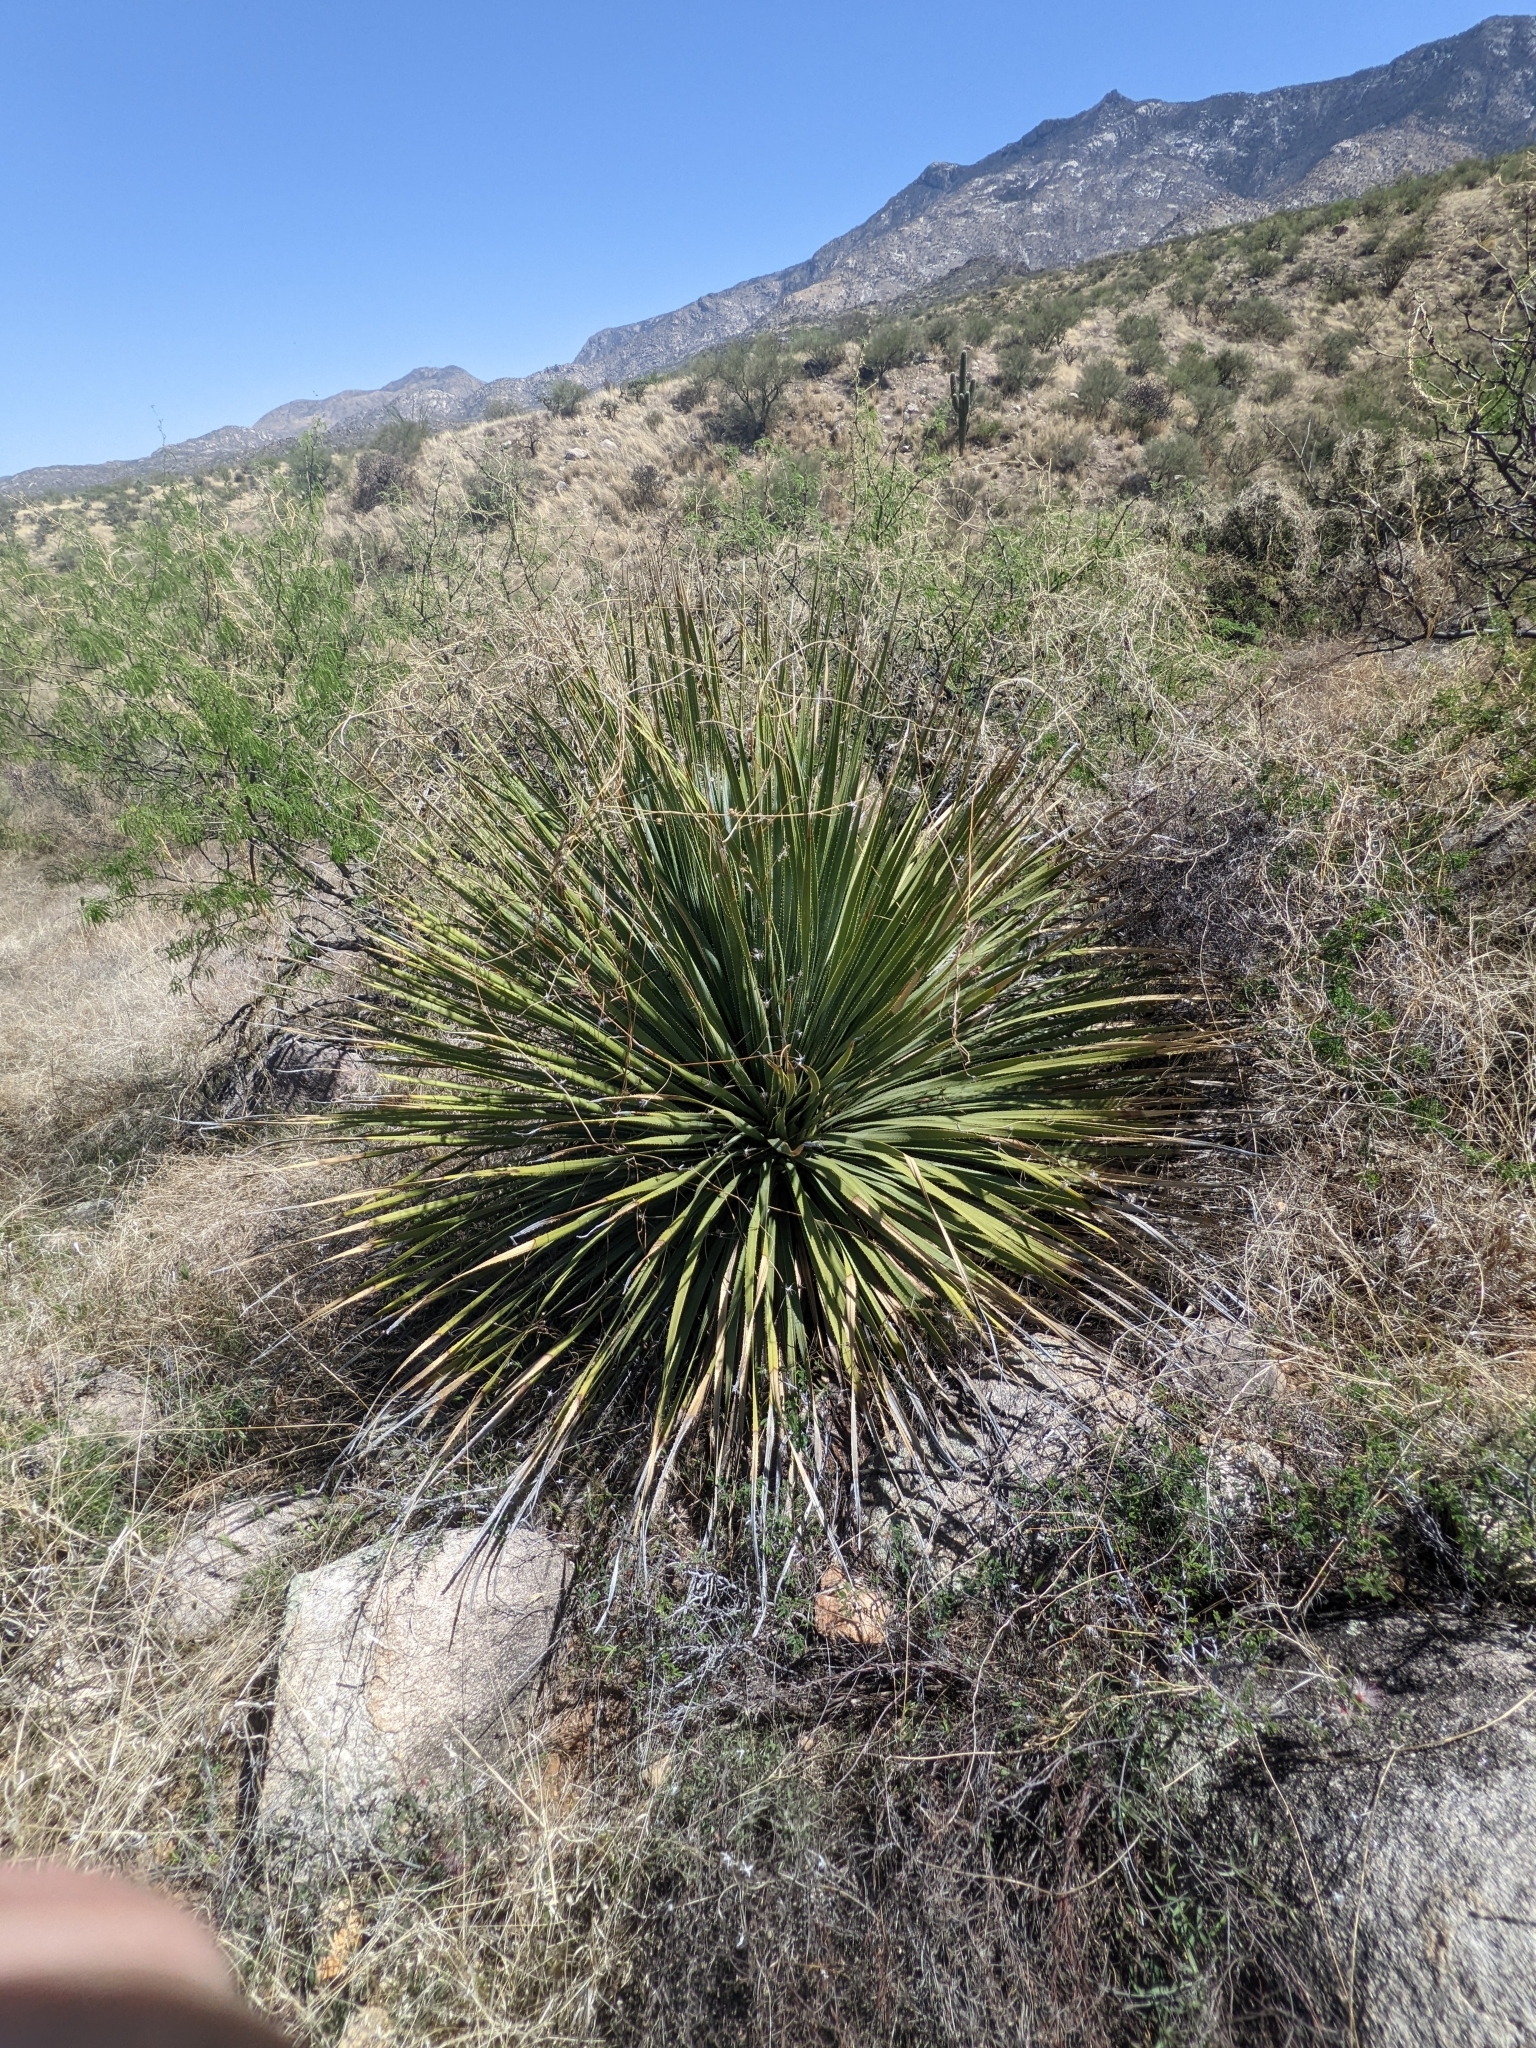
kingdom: Plantae
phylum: Tracheophyta
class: Liliopsida
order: Asparagales
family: Asparagaceae
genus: Dasylirion
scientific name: Dasylirion wheeleri
